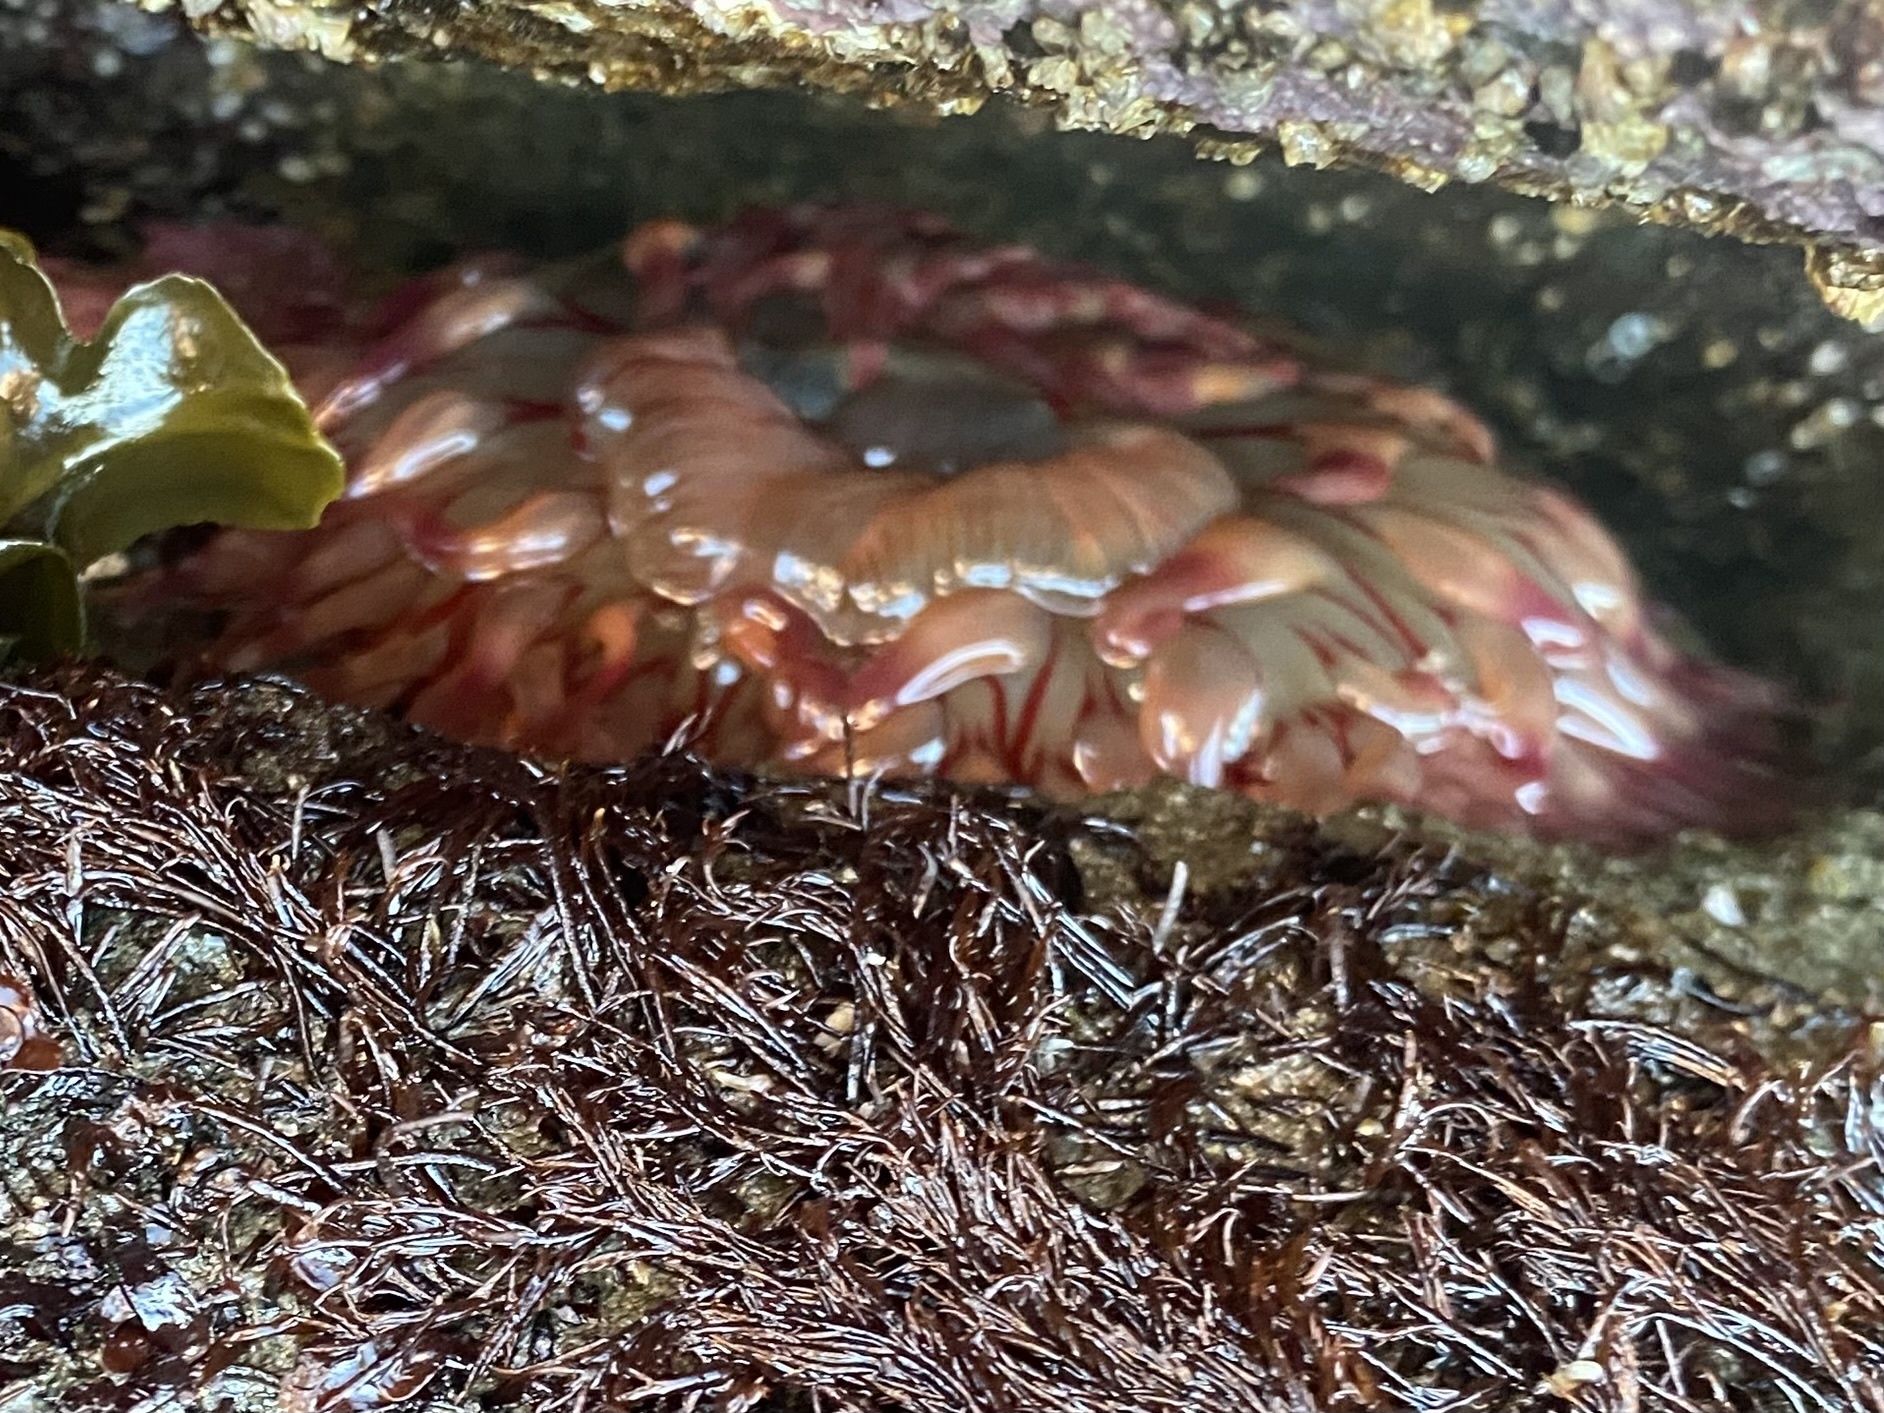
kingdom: Animalia
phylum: Cnidaria
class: Anthozoa
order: Actiniaria
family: Actiniidae
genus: Urticina
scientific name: Urticina grebelnyi
